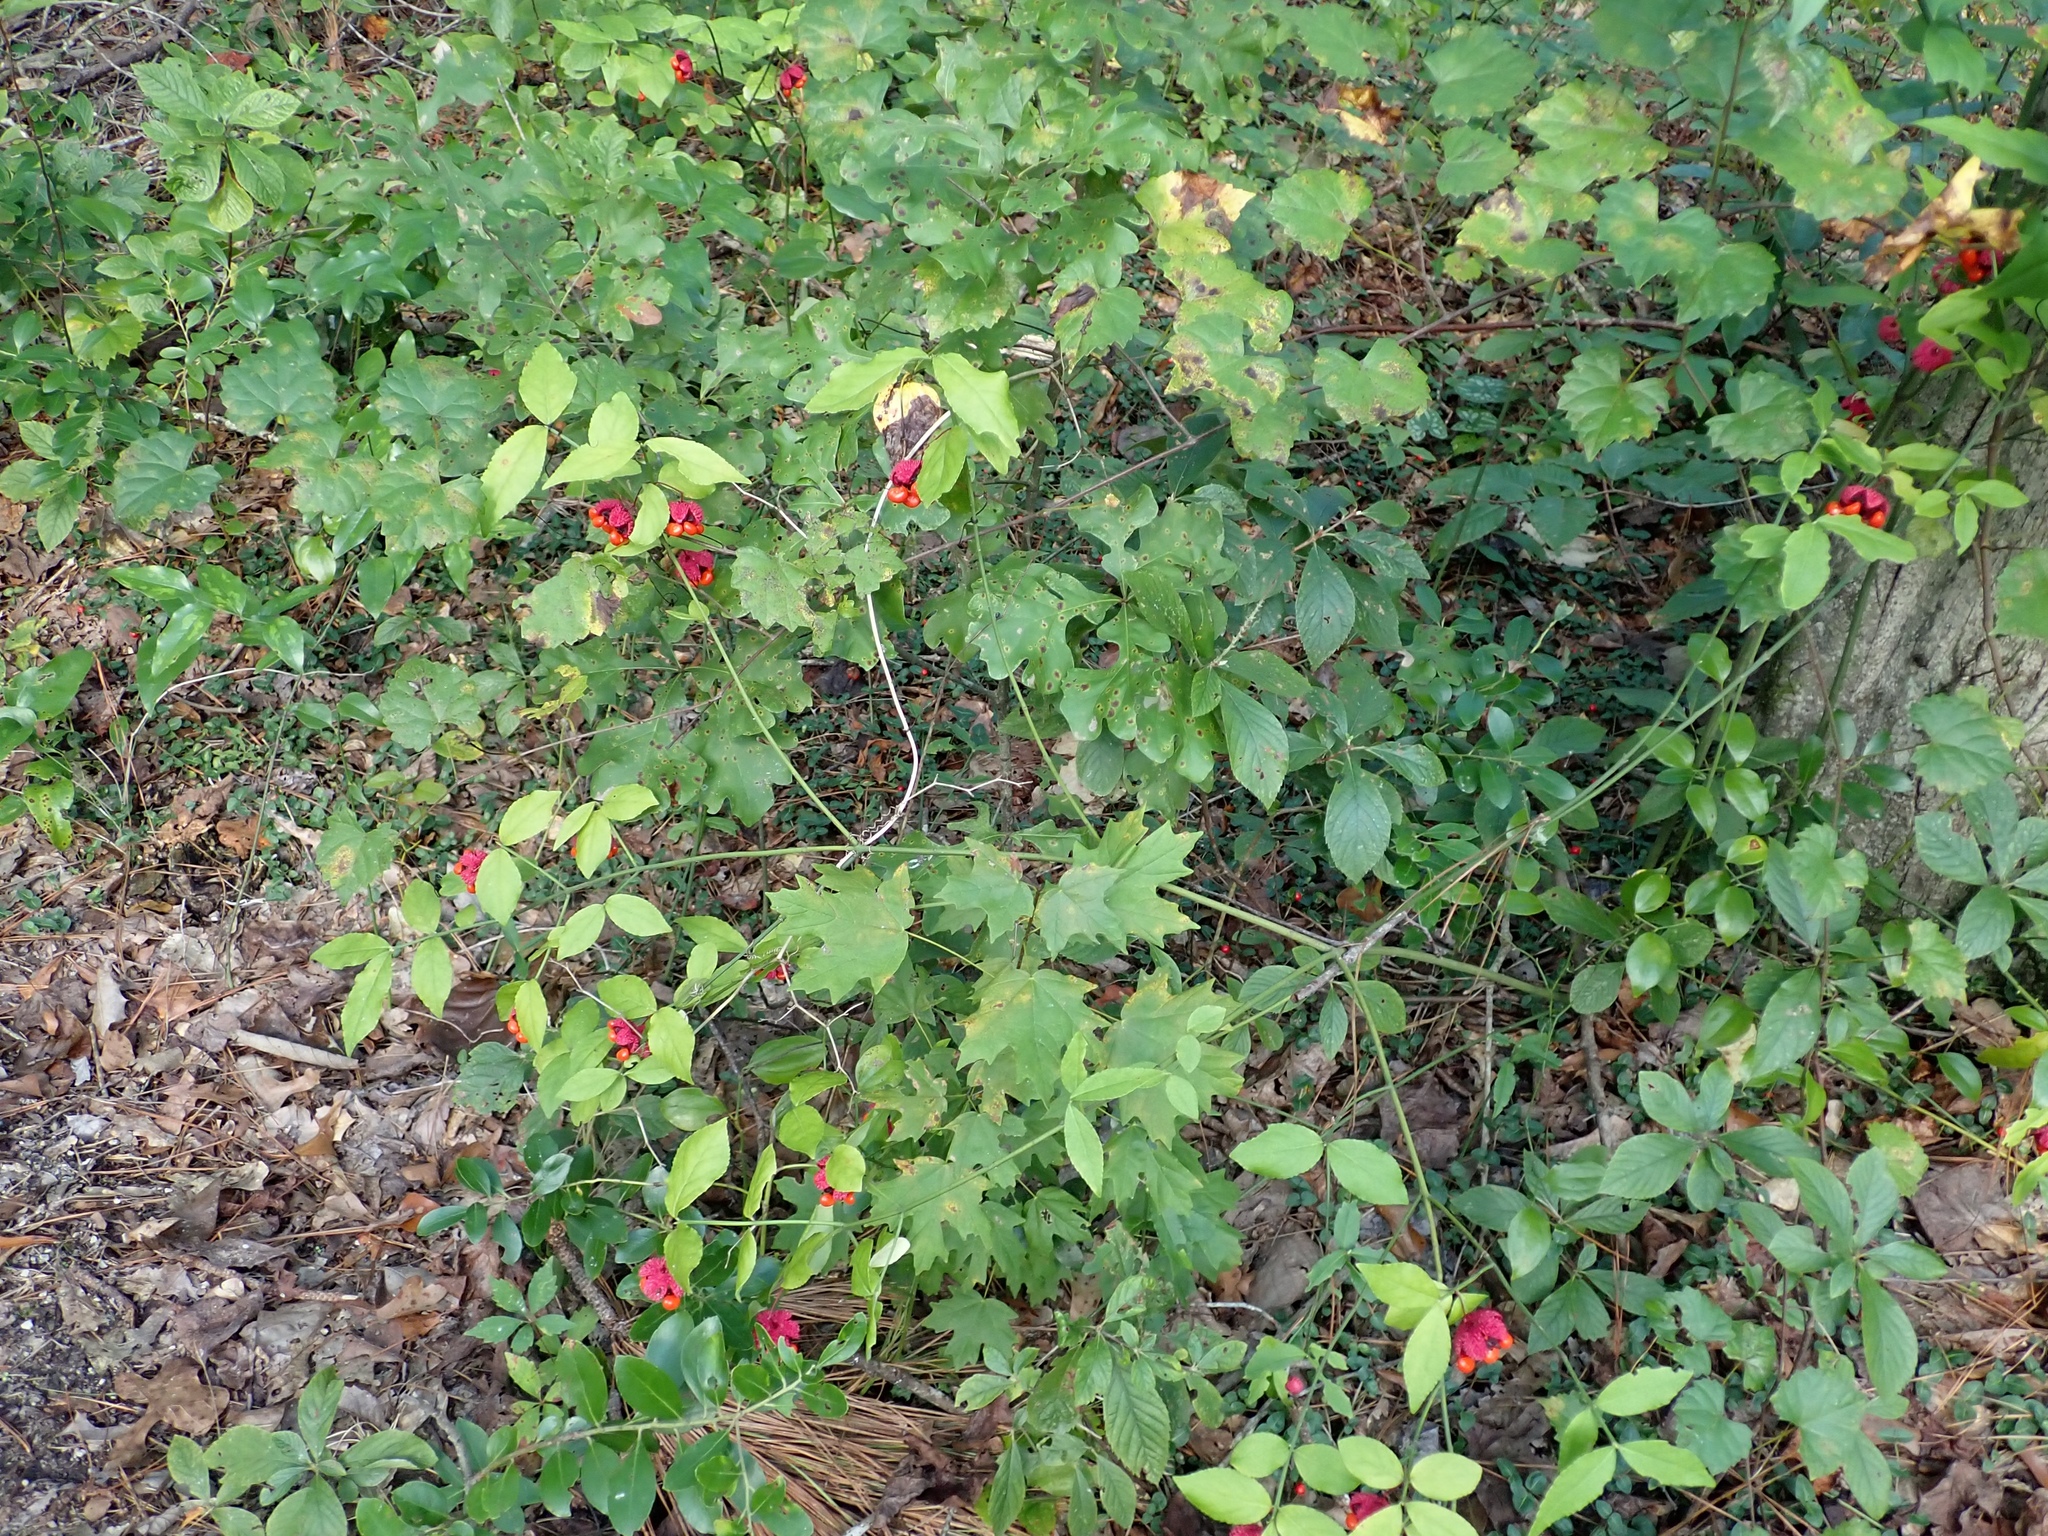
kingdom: Plantae
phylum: Tracheophyta
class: Magnoliopsida
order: Celastrales
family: Celastraceae
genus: Euonymus
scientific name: Euonymus americanus
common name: Bursting-heart
